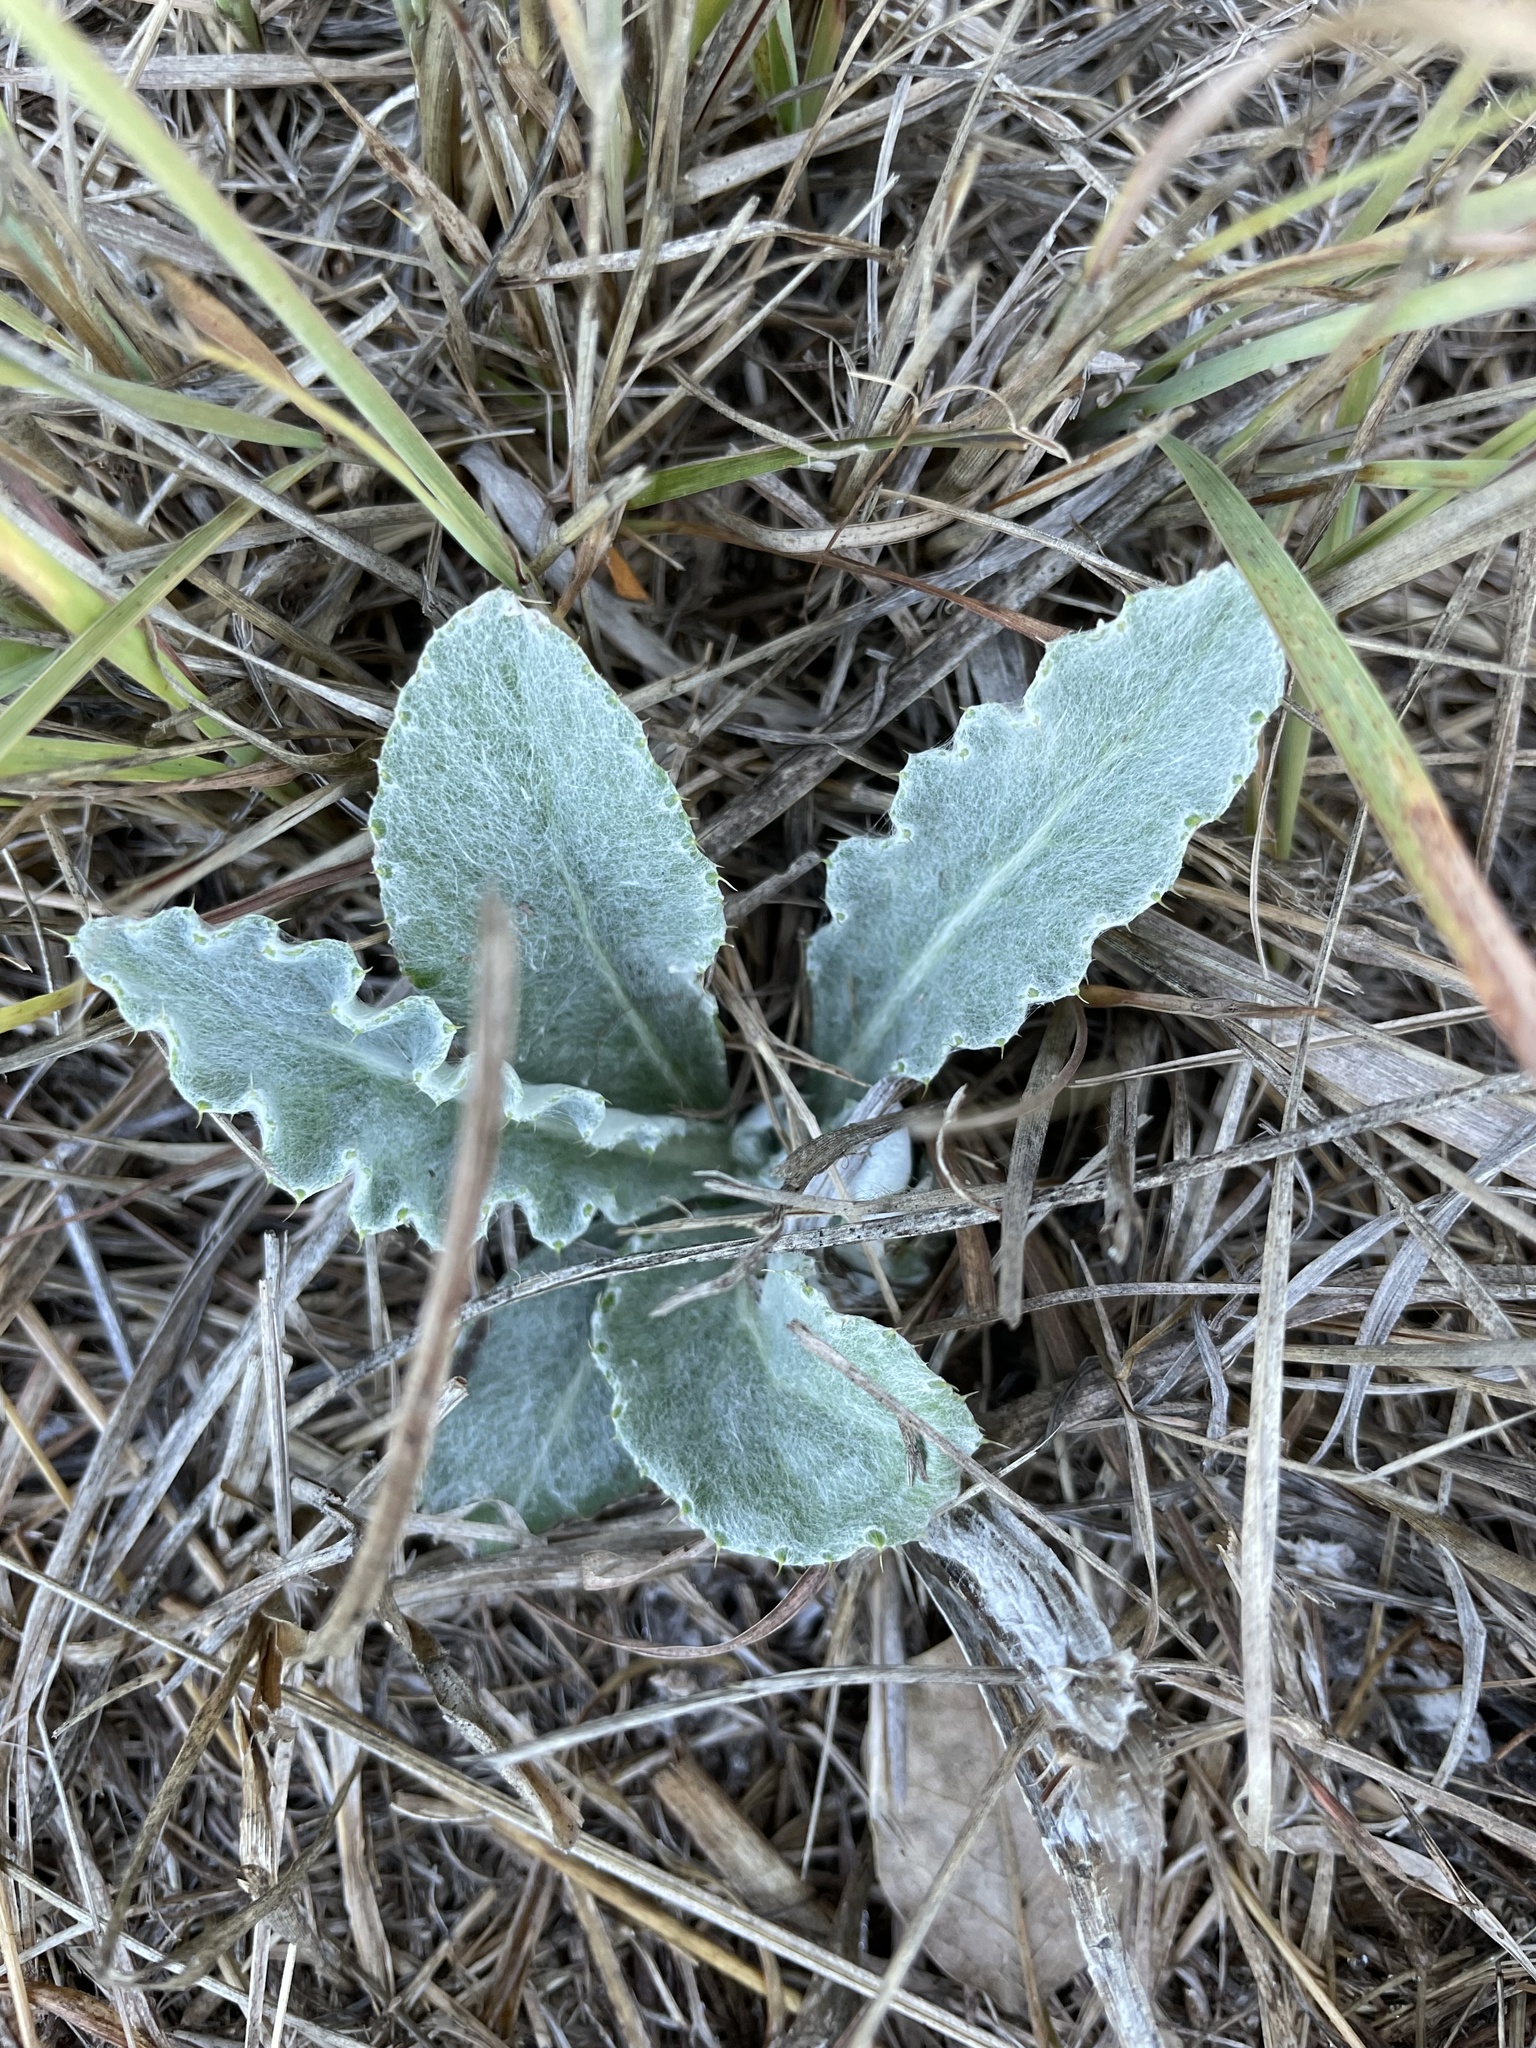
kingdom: Plantae
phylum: Tracheophyta
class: Magnoliopsida
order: Asterales
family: Asteraceae
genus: Cirsium
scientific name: Cirsium undulatum
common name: Pasture thistle
